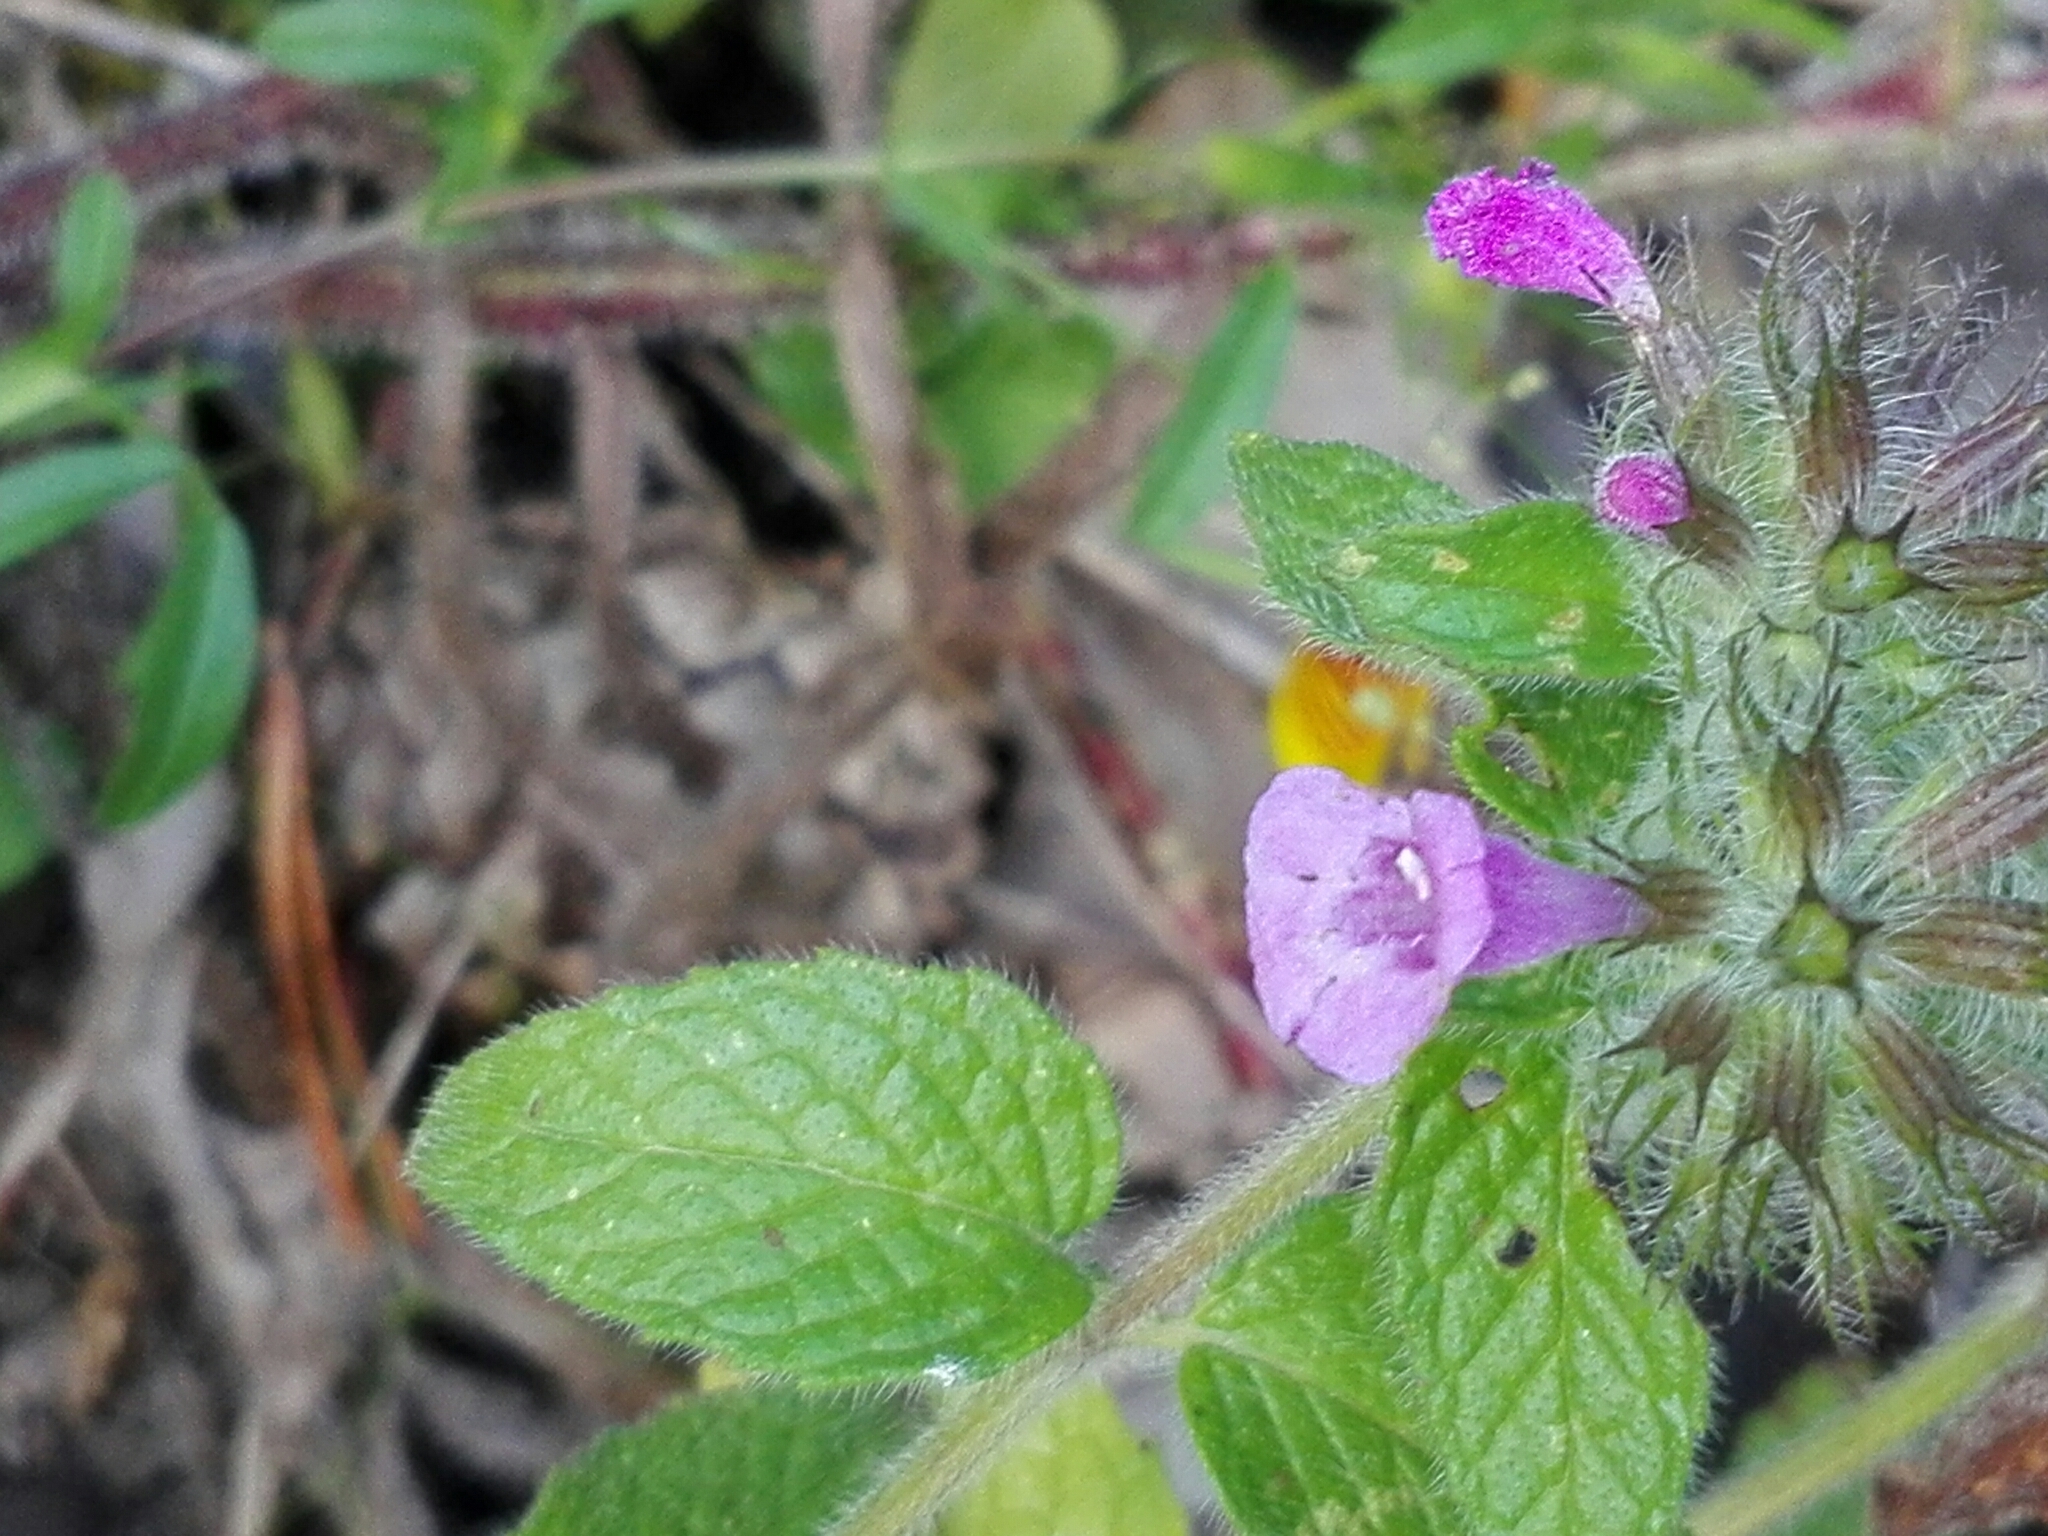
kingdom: Plantae
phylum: Tracheophyta
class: Magnoliopsida
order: Lamiales
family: Lamiaceae
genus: Clinopodium
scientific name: Clinopodium vulgare
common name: Wild basil
